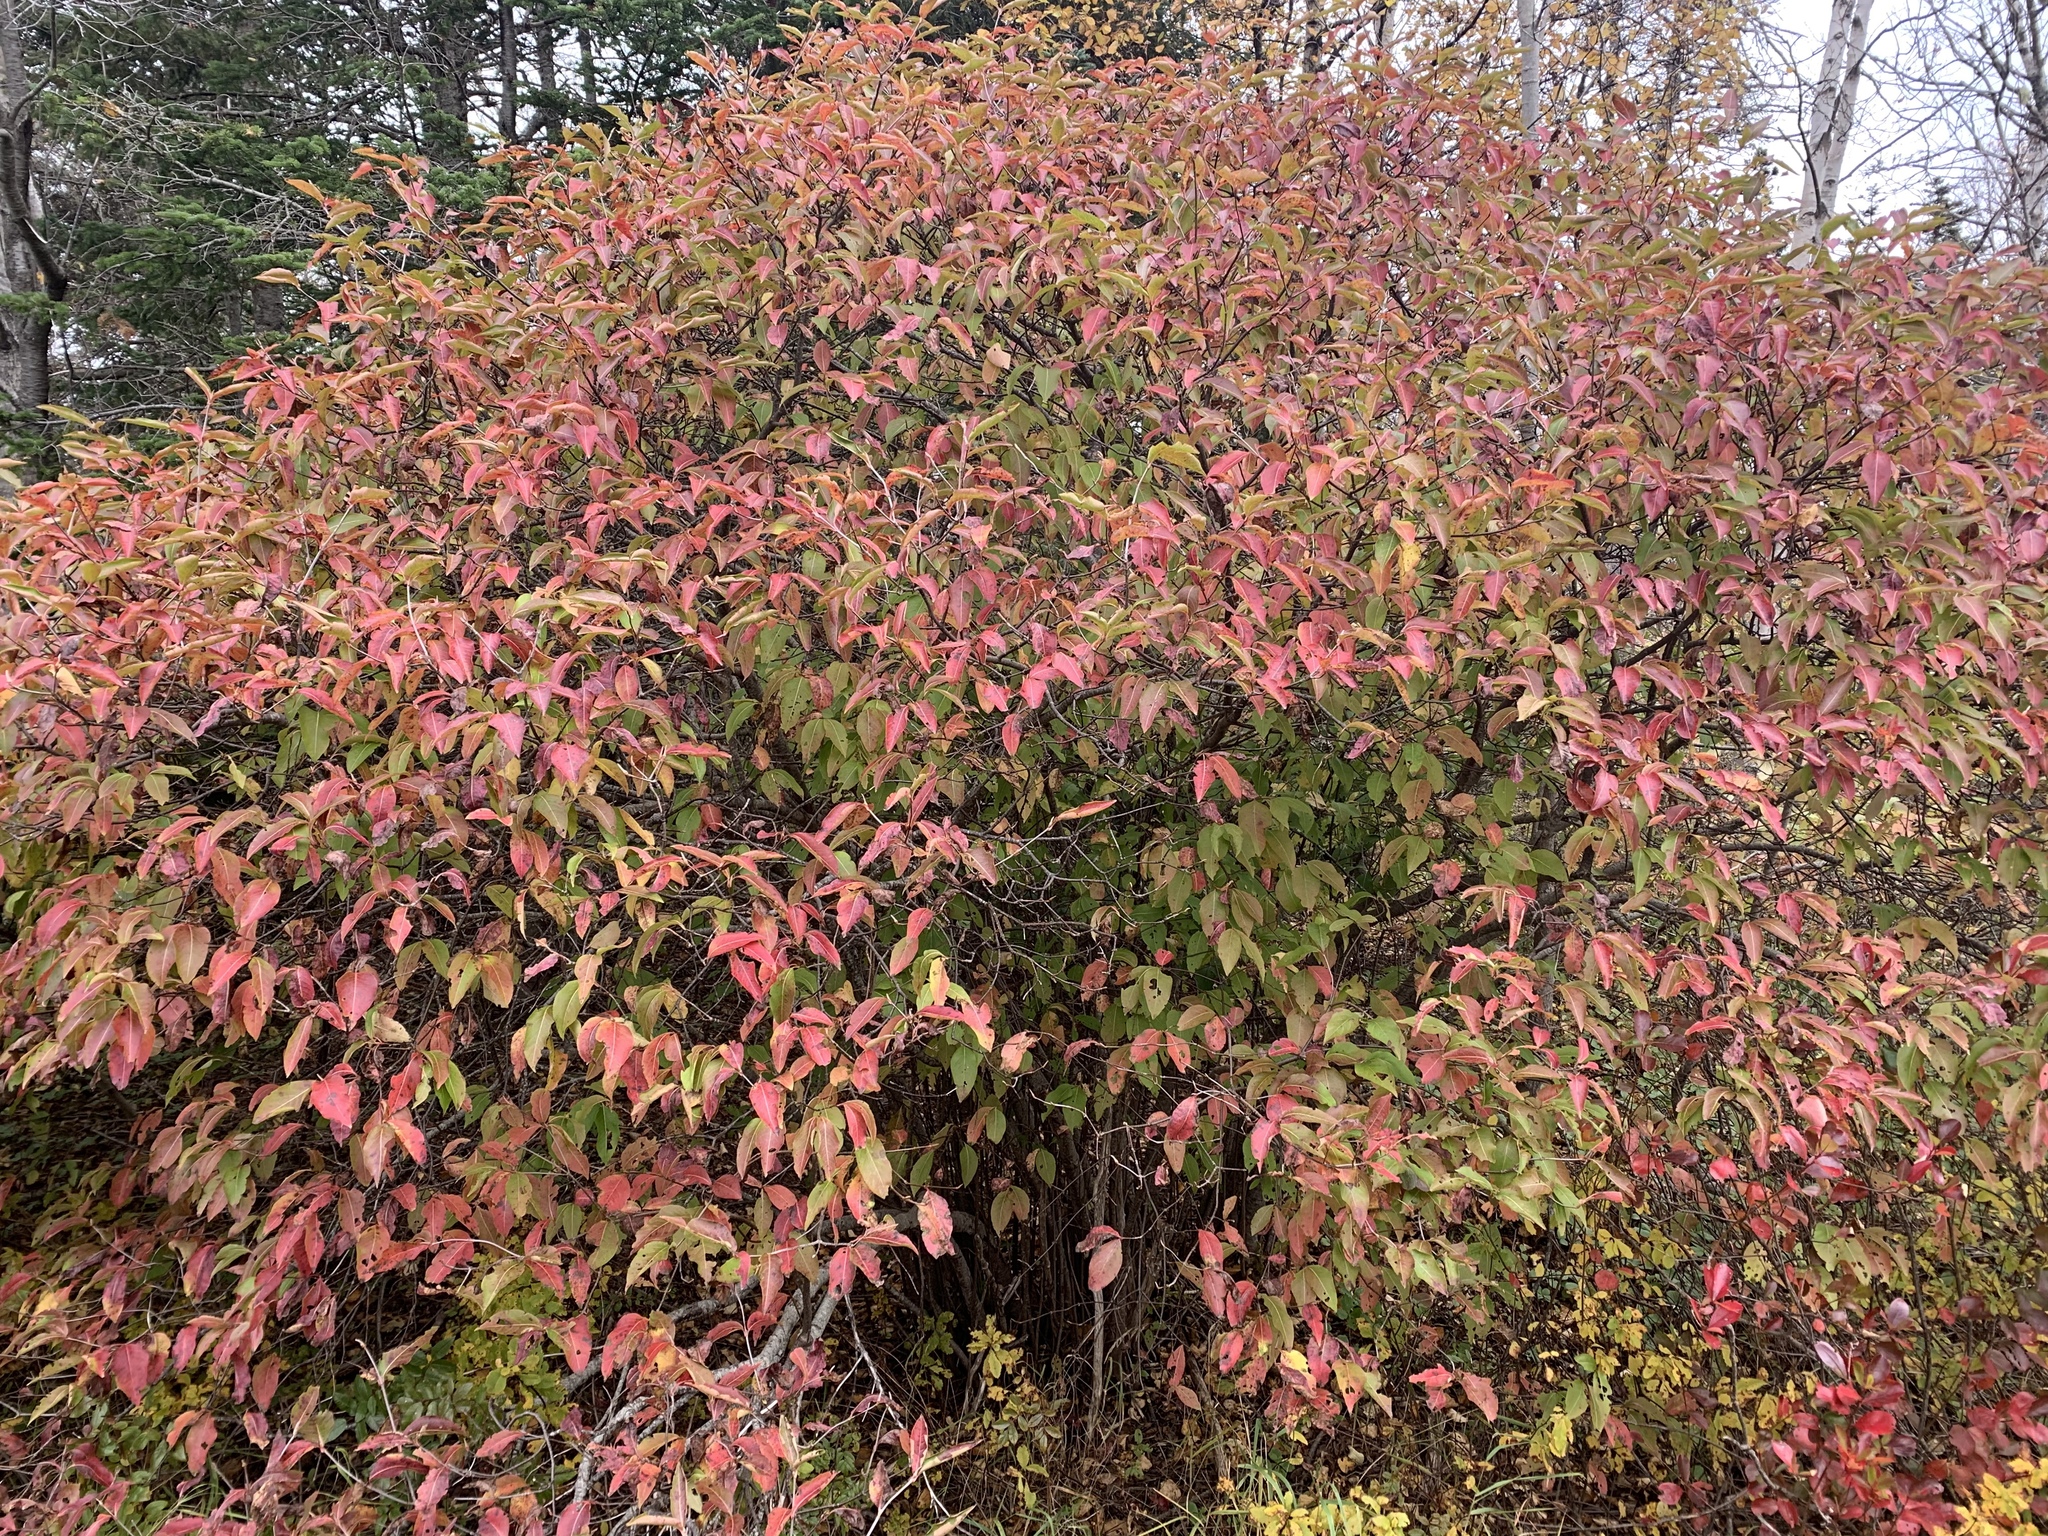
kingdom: Plantae
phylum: Tracheophyta
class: Magnoliopsida
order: Dipsacales
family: Viburnaceae
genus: Viburnum
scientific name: Viburnum cassinoides
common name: Swamp haw
